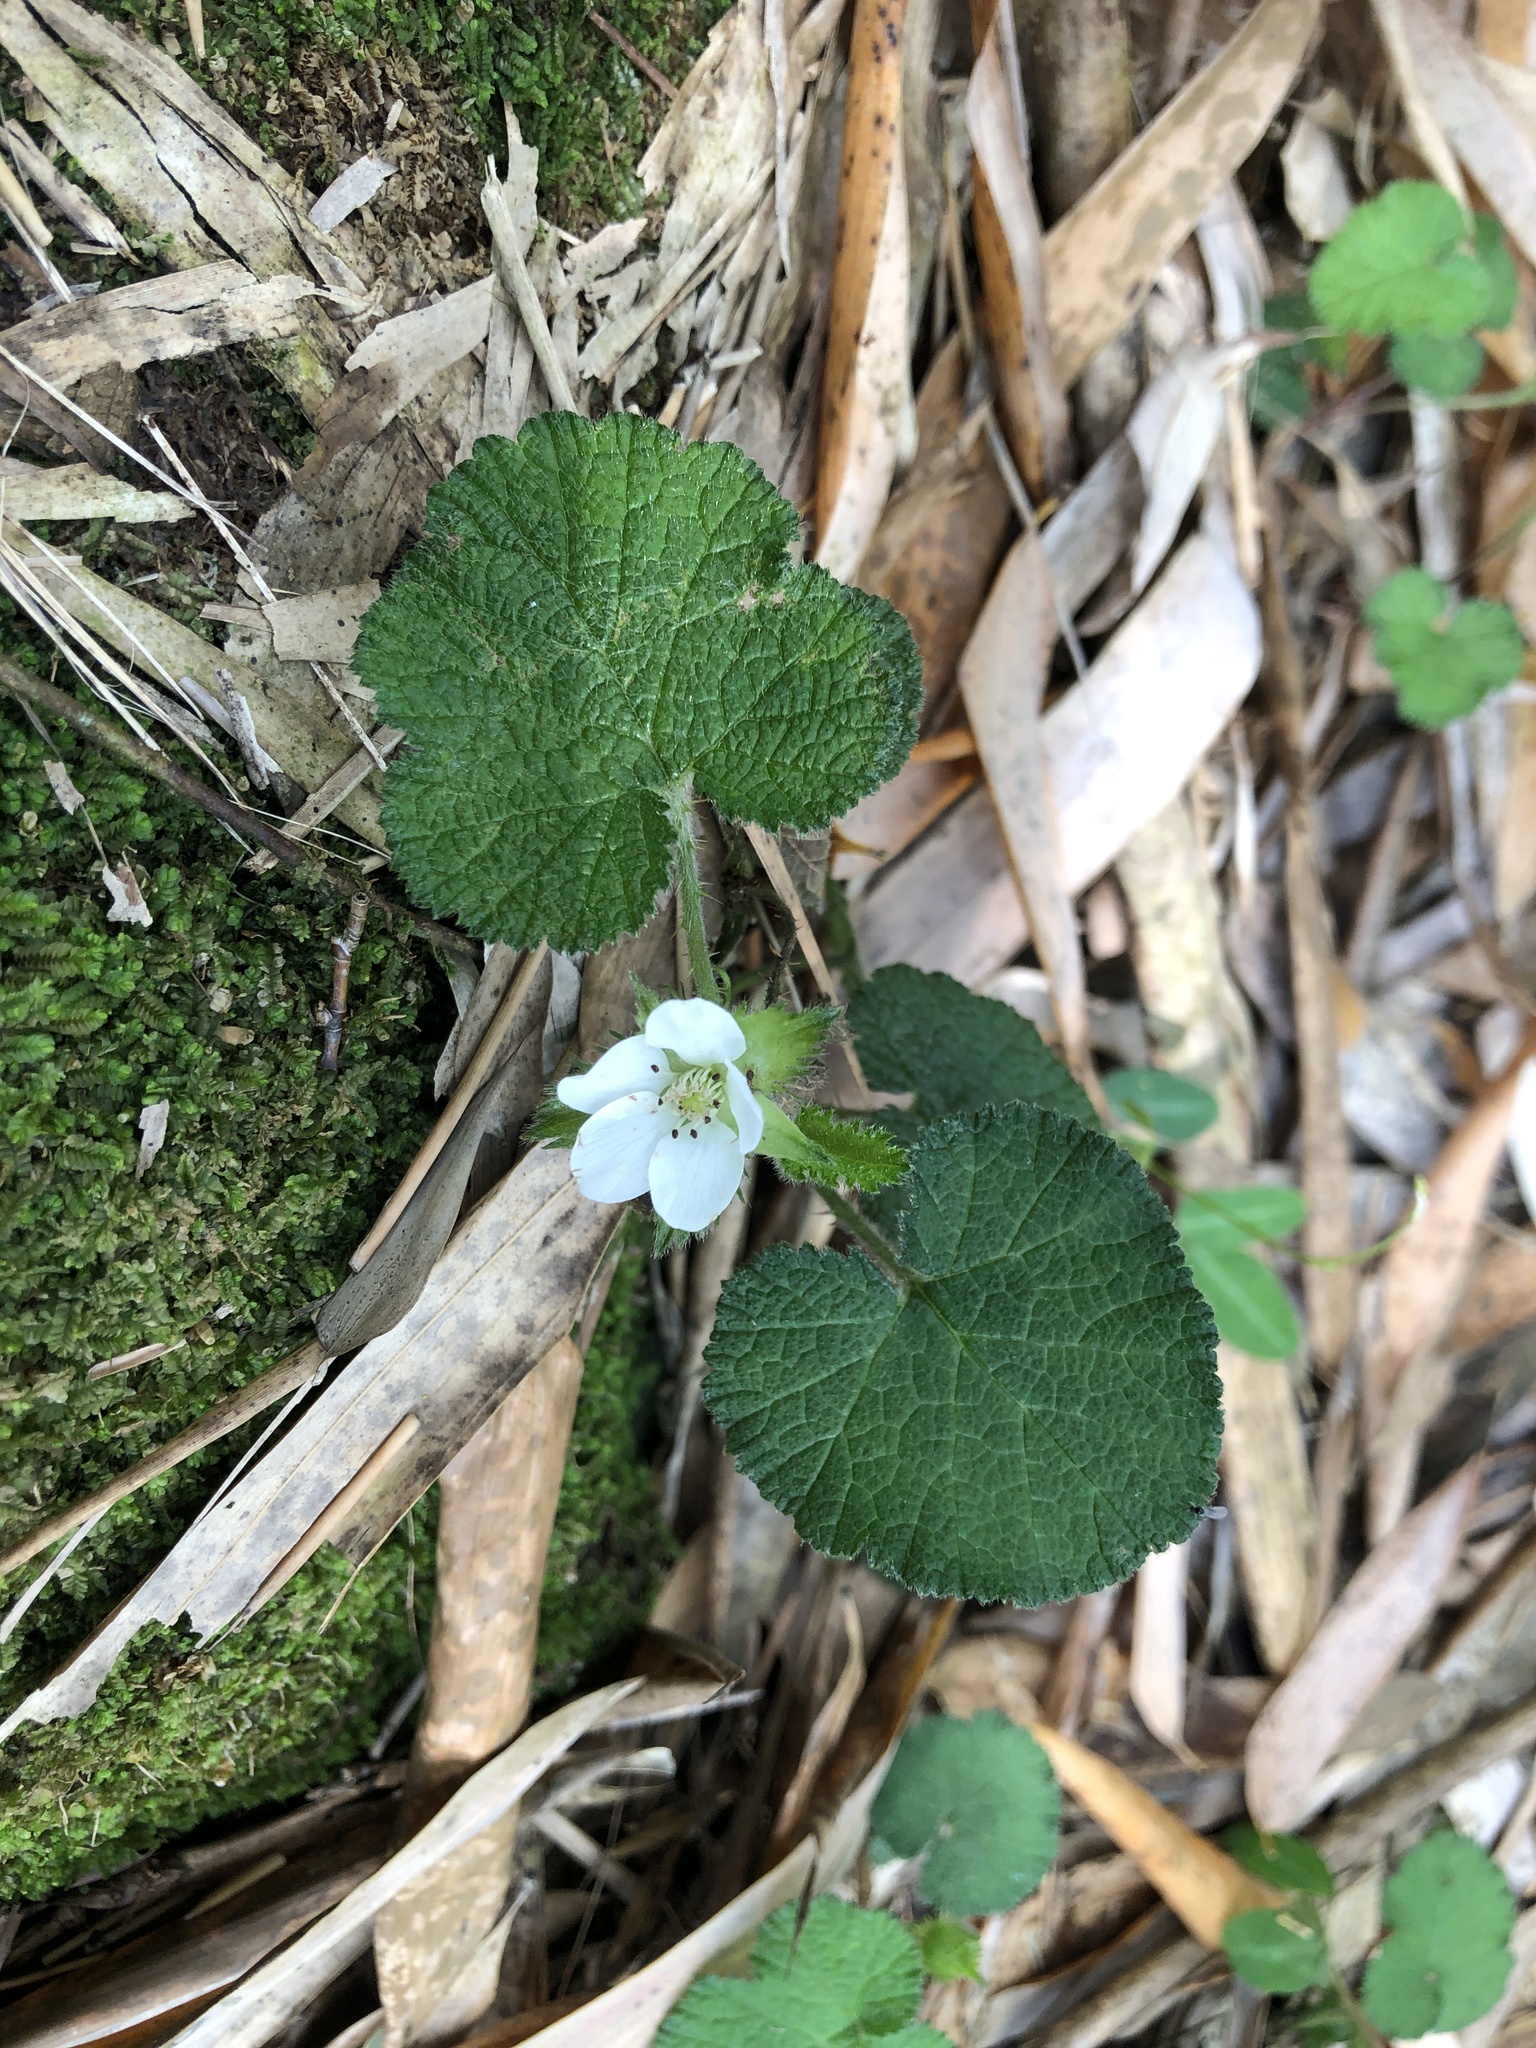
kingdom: Plantae
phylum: Tracheophyta
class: Magnoliopsida
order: Rosales
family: Rosaceae
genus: Rubus
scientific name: Rubus pectinellus
